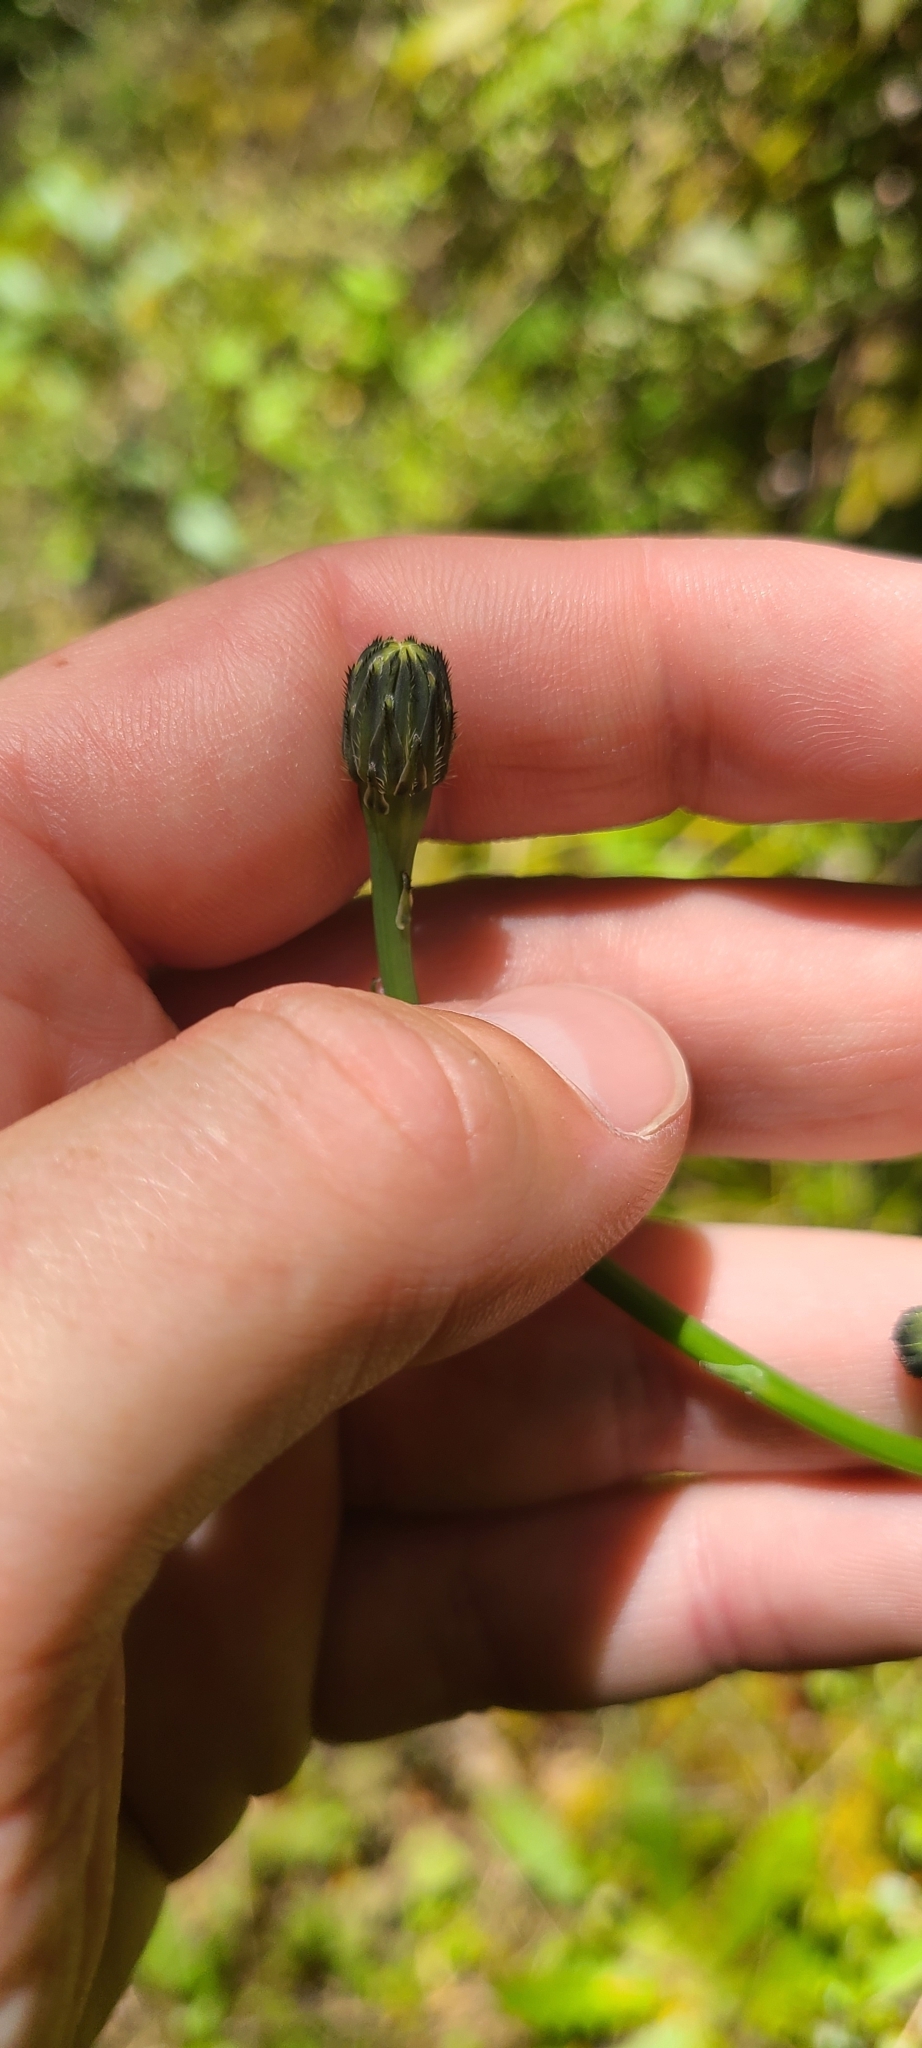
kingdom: Plantae
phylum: Tracheophyta
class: Magnoliopsida
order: Asterales
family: Asteraceae
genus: Hypochaeris
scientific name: Hypochaeris radicata
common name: Flatweed
